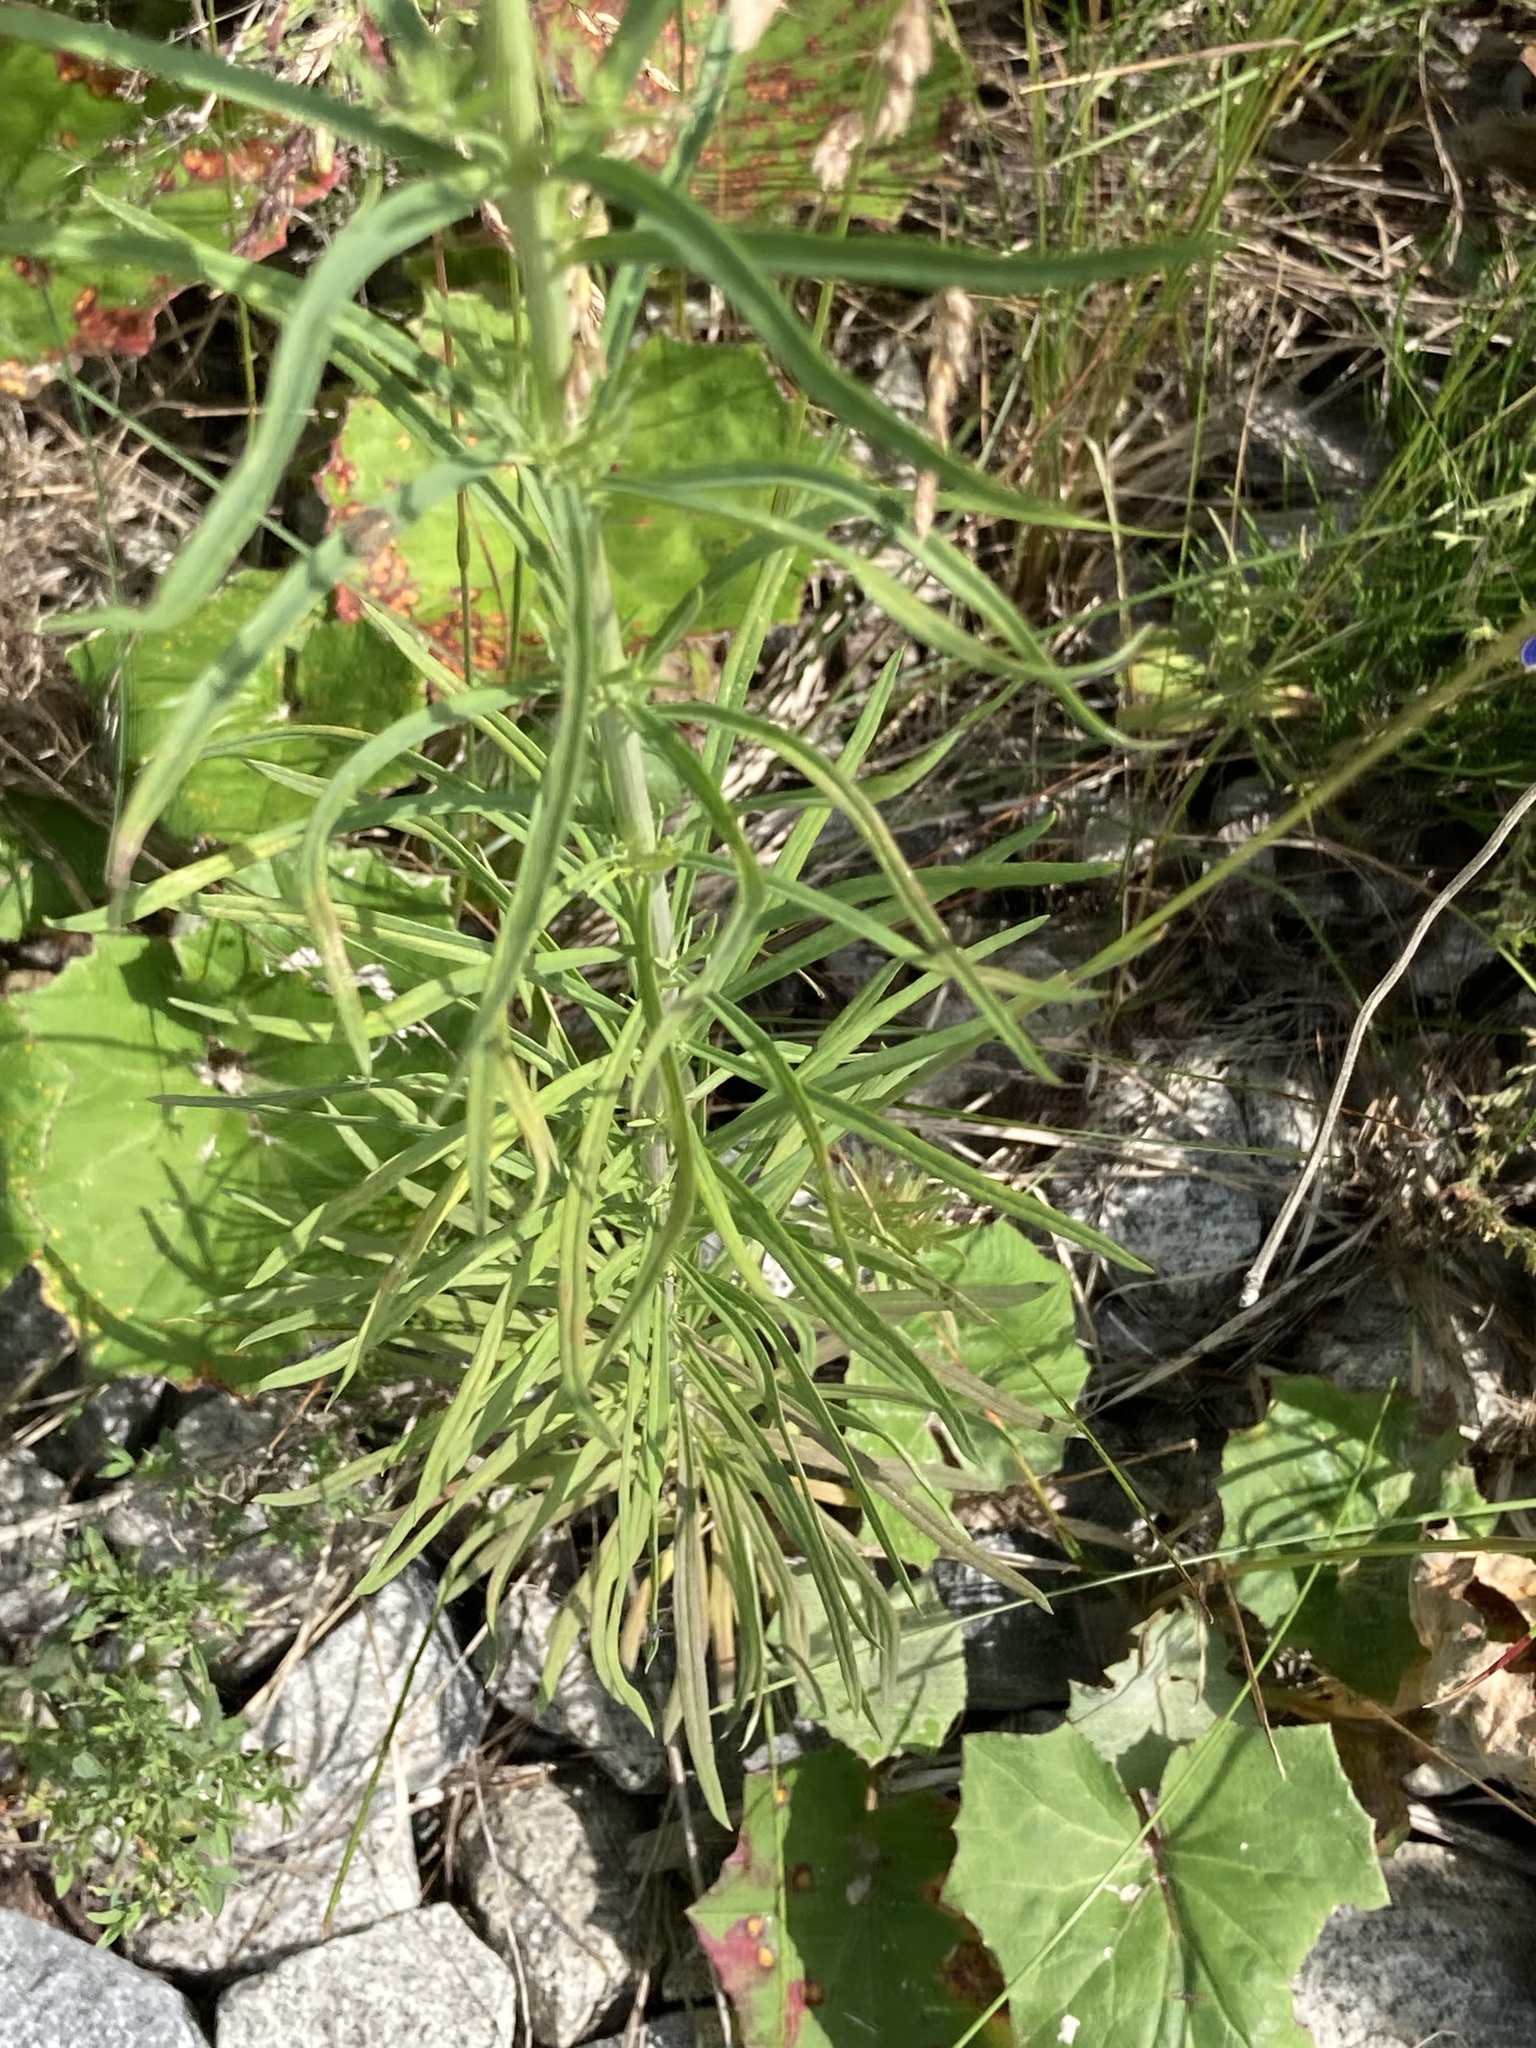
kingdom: Plantae
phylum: Tracheophyta
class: Magnoliopsida
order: Rosales
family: Rosaceae
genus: Geum
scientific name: Geum aleppicum
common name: Yellow avens
